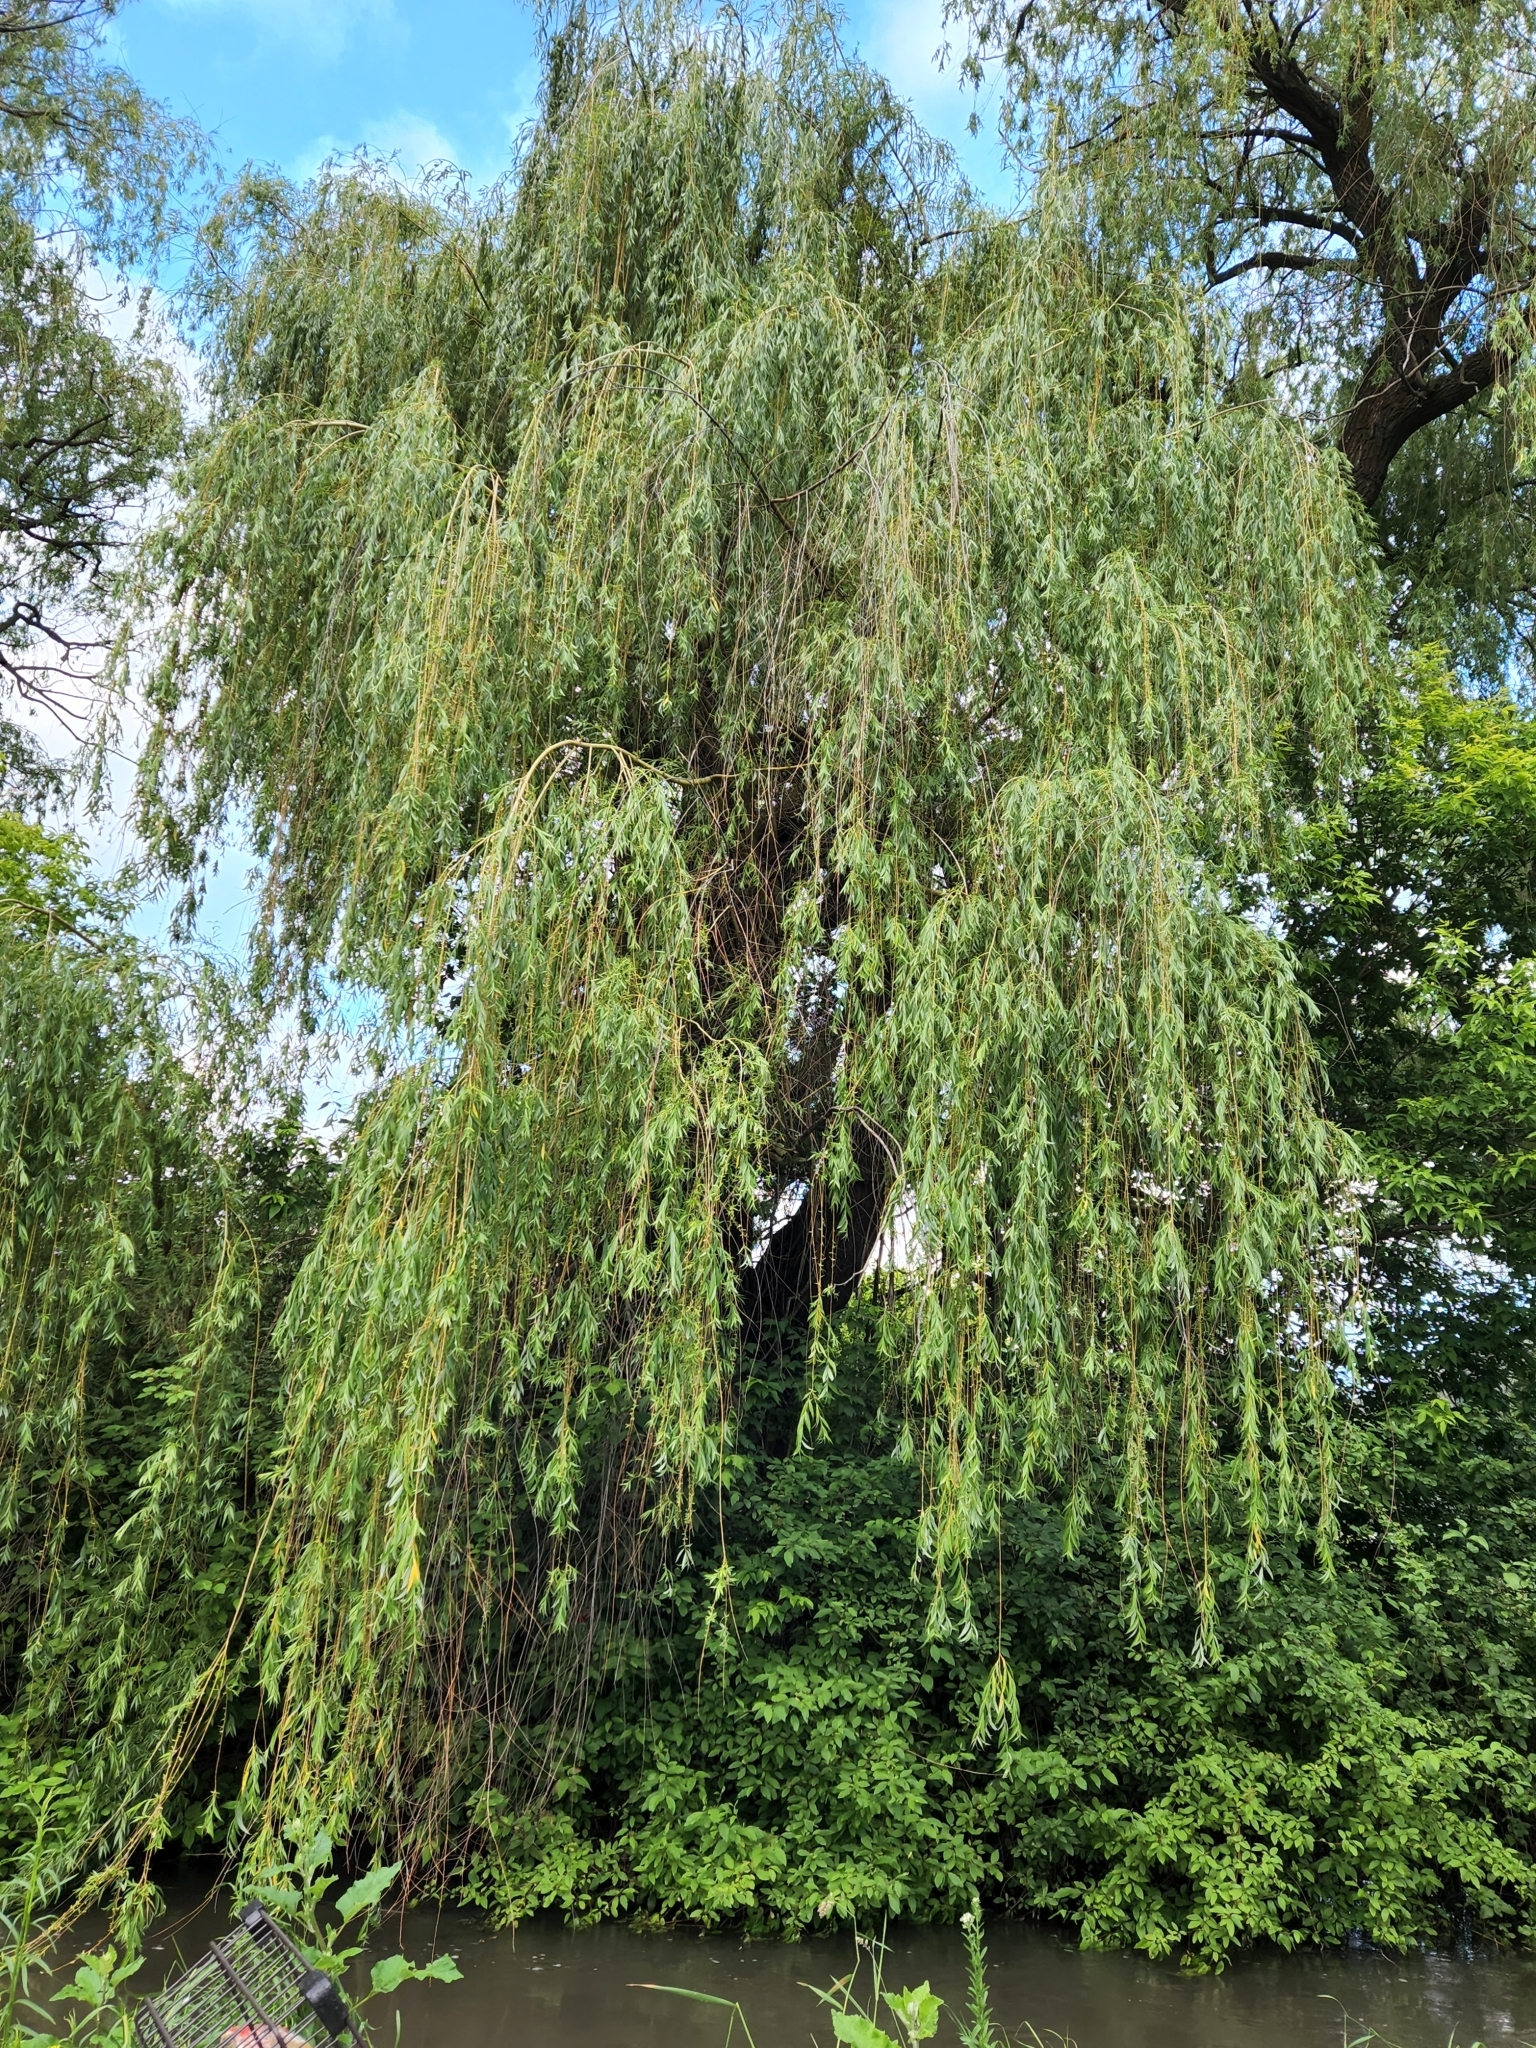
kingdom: Plantae
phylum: Tracheophyta
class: Magnoliopsida
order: Malpighiales
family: Salicaceae
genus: Salix
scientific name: Salix pendulina
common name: Wisconsin weeping willow
